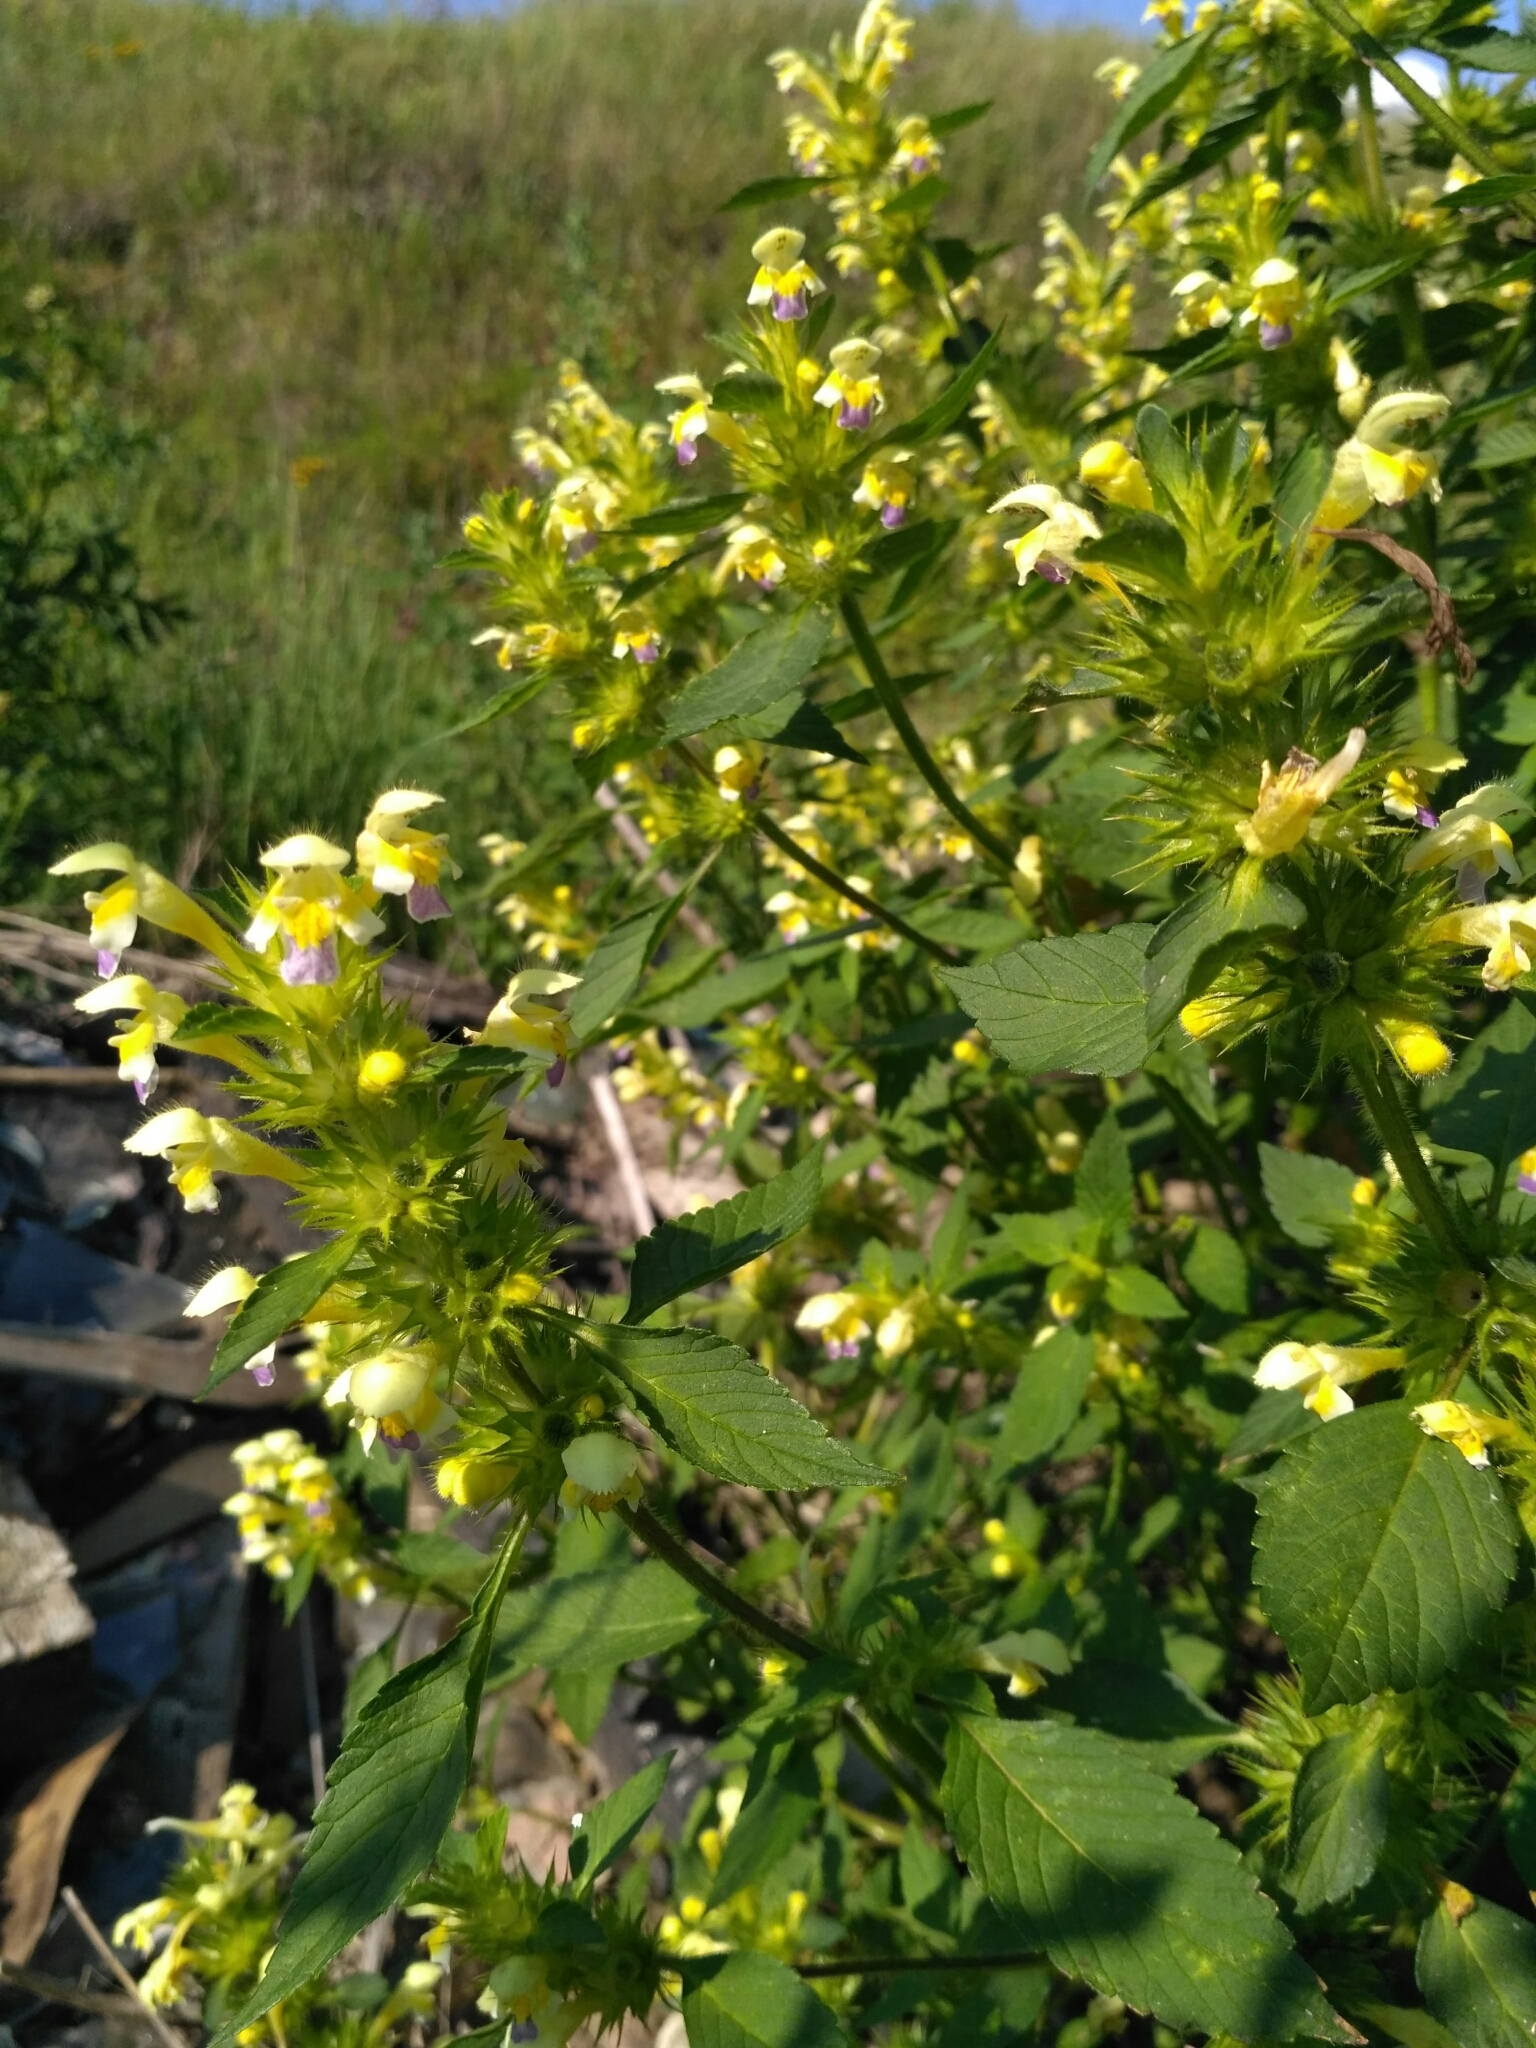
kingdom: Plantae
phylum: Tracheophyta
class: Magnoliopsida
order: Lamiales
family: Lamiaceae
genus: Galeopsis
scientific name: Galeopsis speciosa
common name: Large-flowered hemp-nettle
